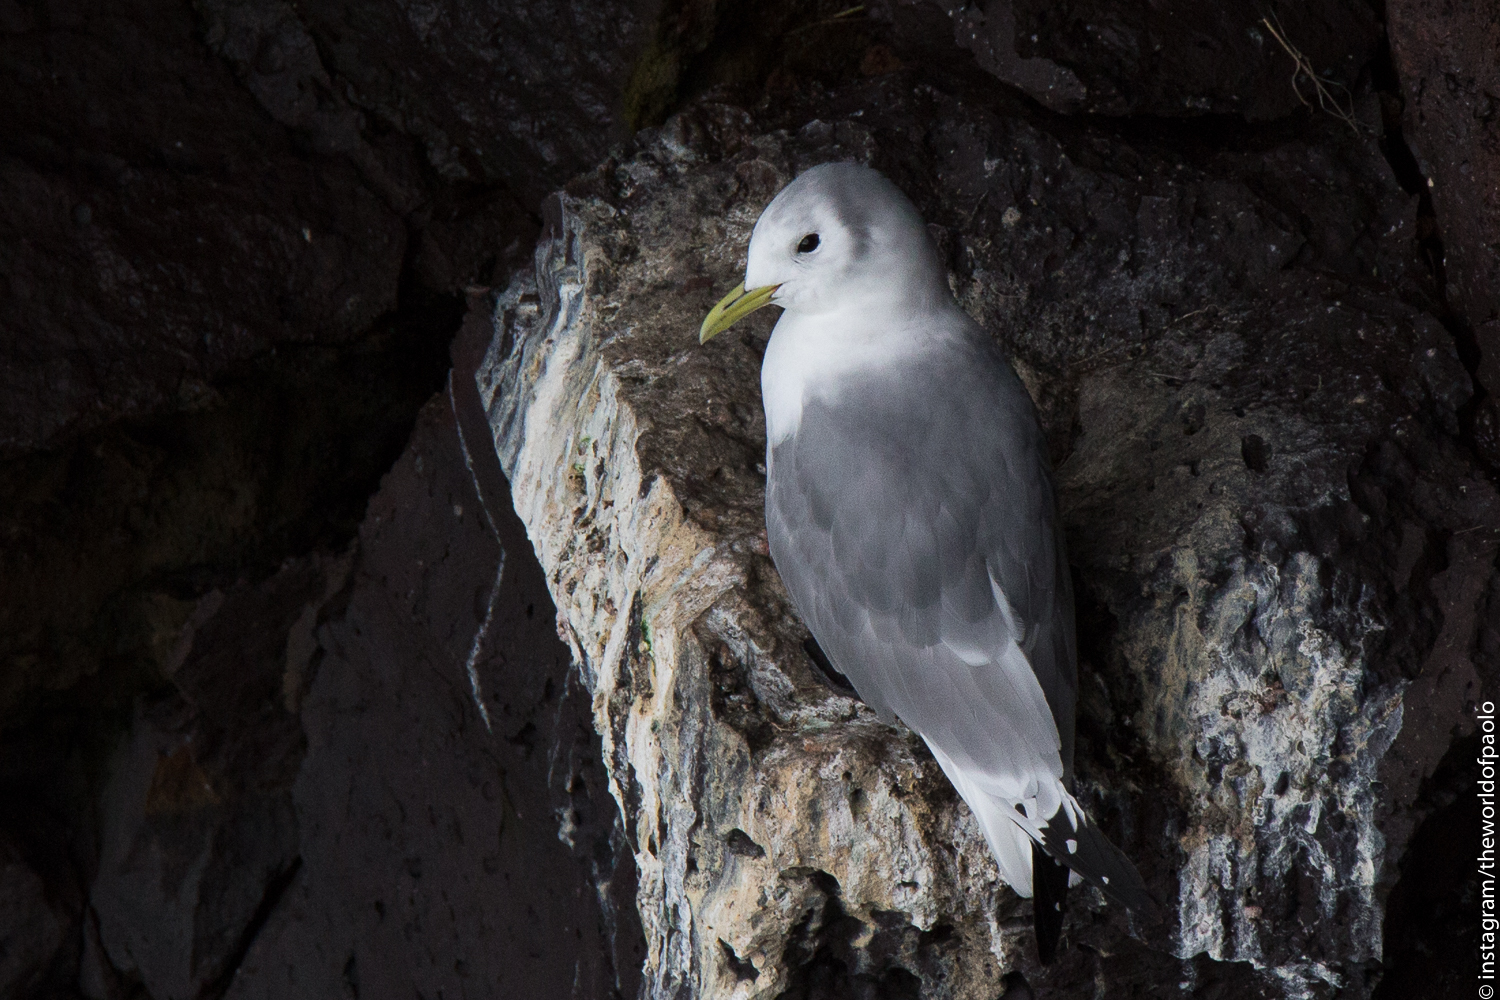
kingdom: Animalia
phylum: Chordata
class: Aves
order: Charadriiformes
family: Laridae
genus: Rissa
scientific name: Rissa tridactyla
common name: Black-legged kittiwake
